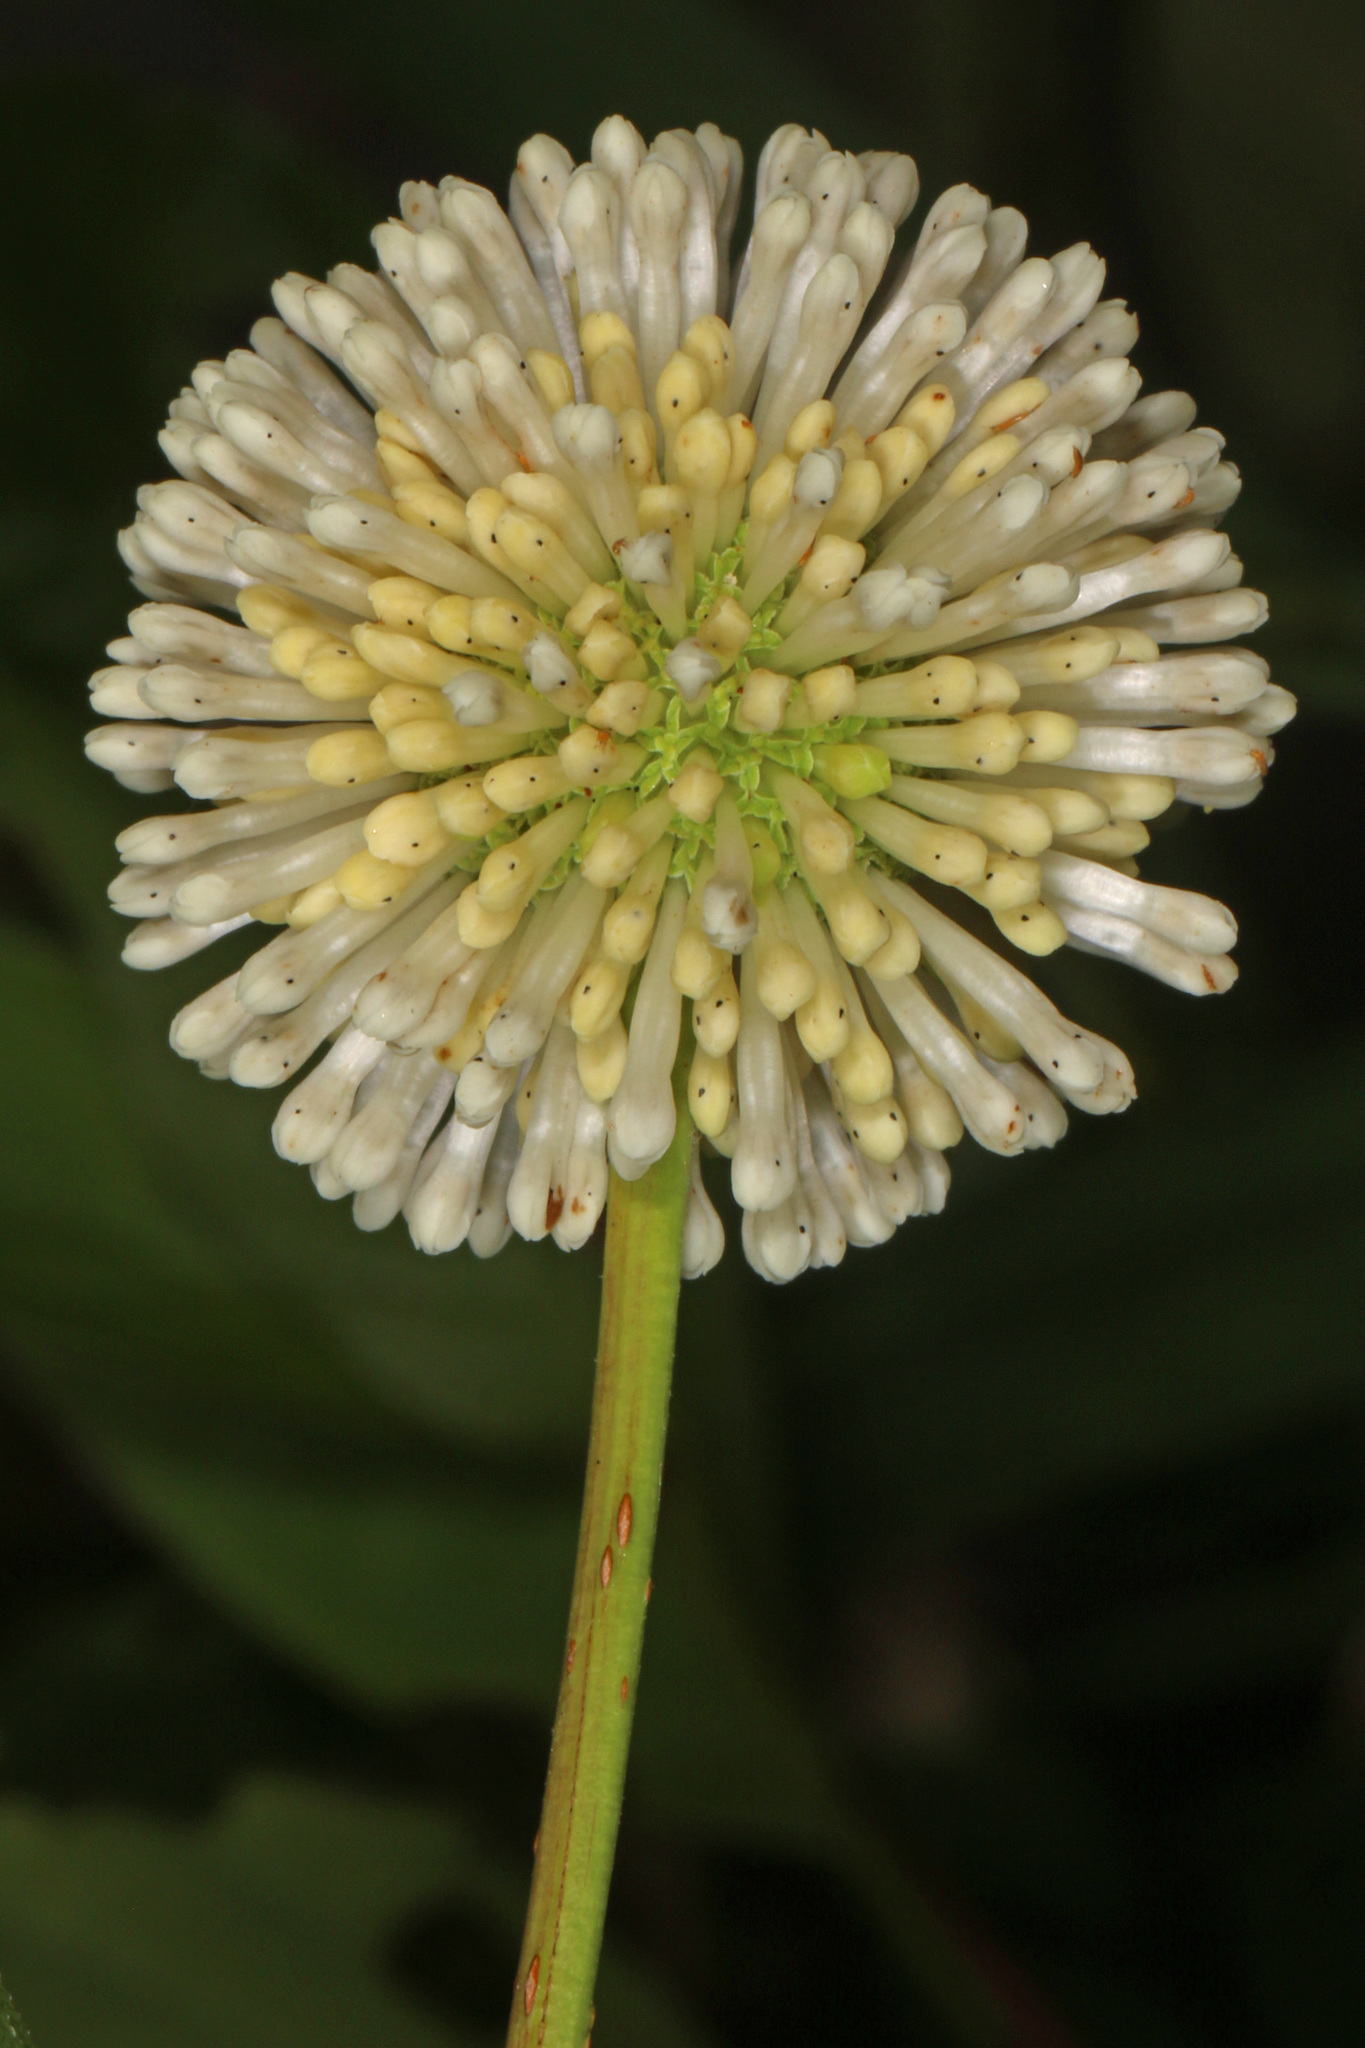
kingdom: Plantae
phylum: Tracheophyta
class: Magnoliopsida
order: Gentianales
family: Rubiaceae
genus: Cephalanthus
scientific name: Cephalanthus occidentalis
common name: Button-willow
